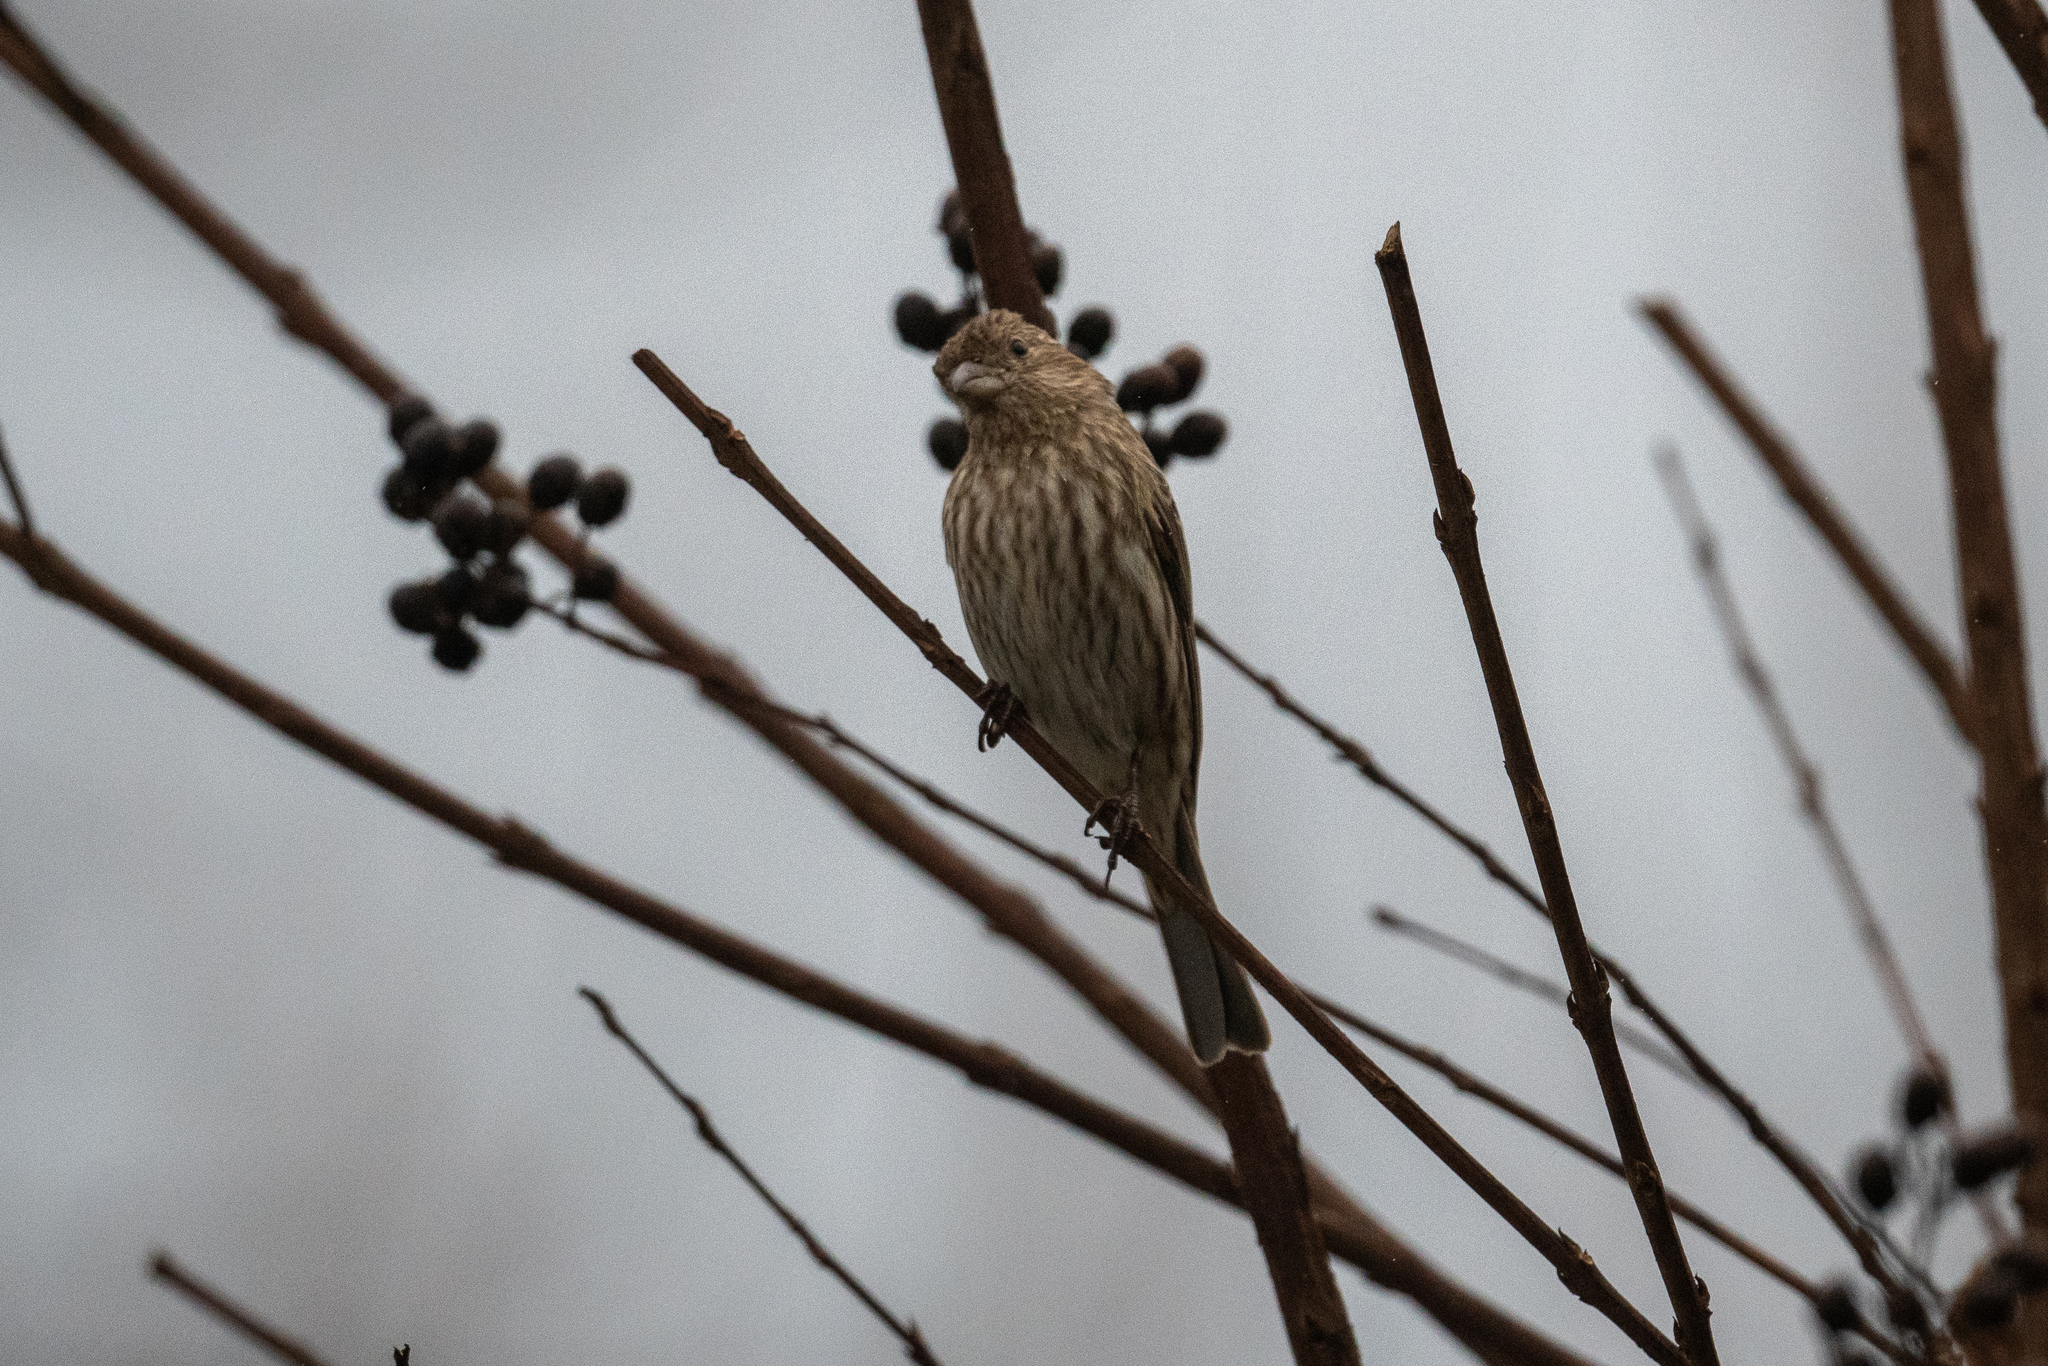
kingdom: Animalia
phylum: Chordata
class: Aves
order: Passeriformes
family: Fringillidae
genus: Haemorhous
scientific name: Haemorhous mexicanus
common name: House finch
